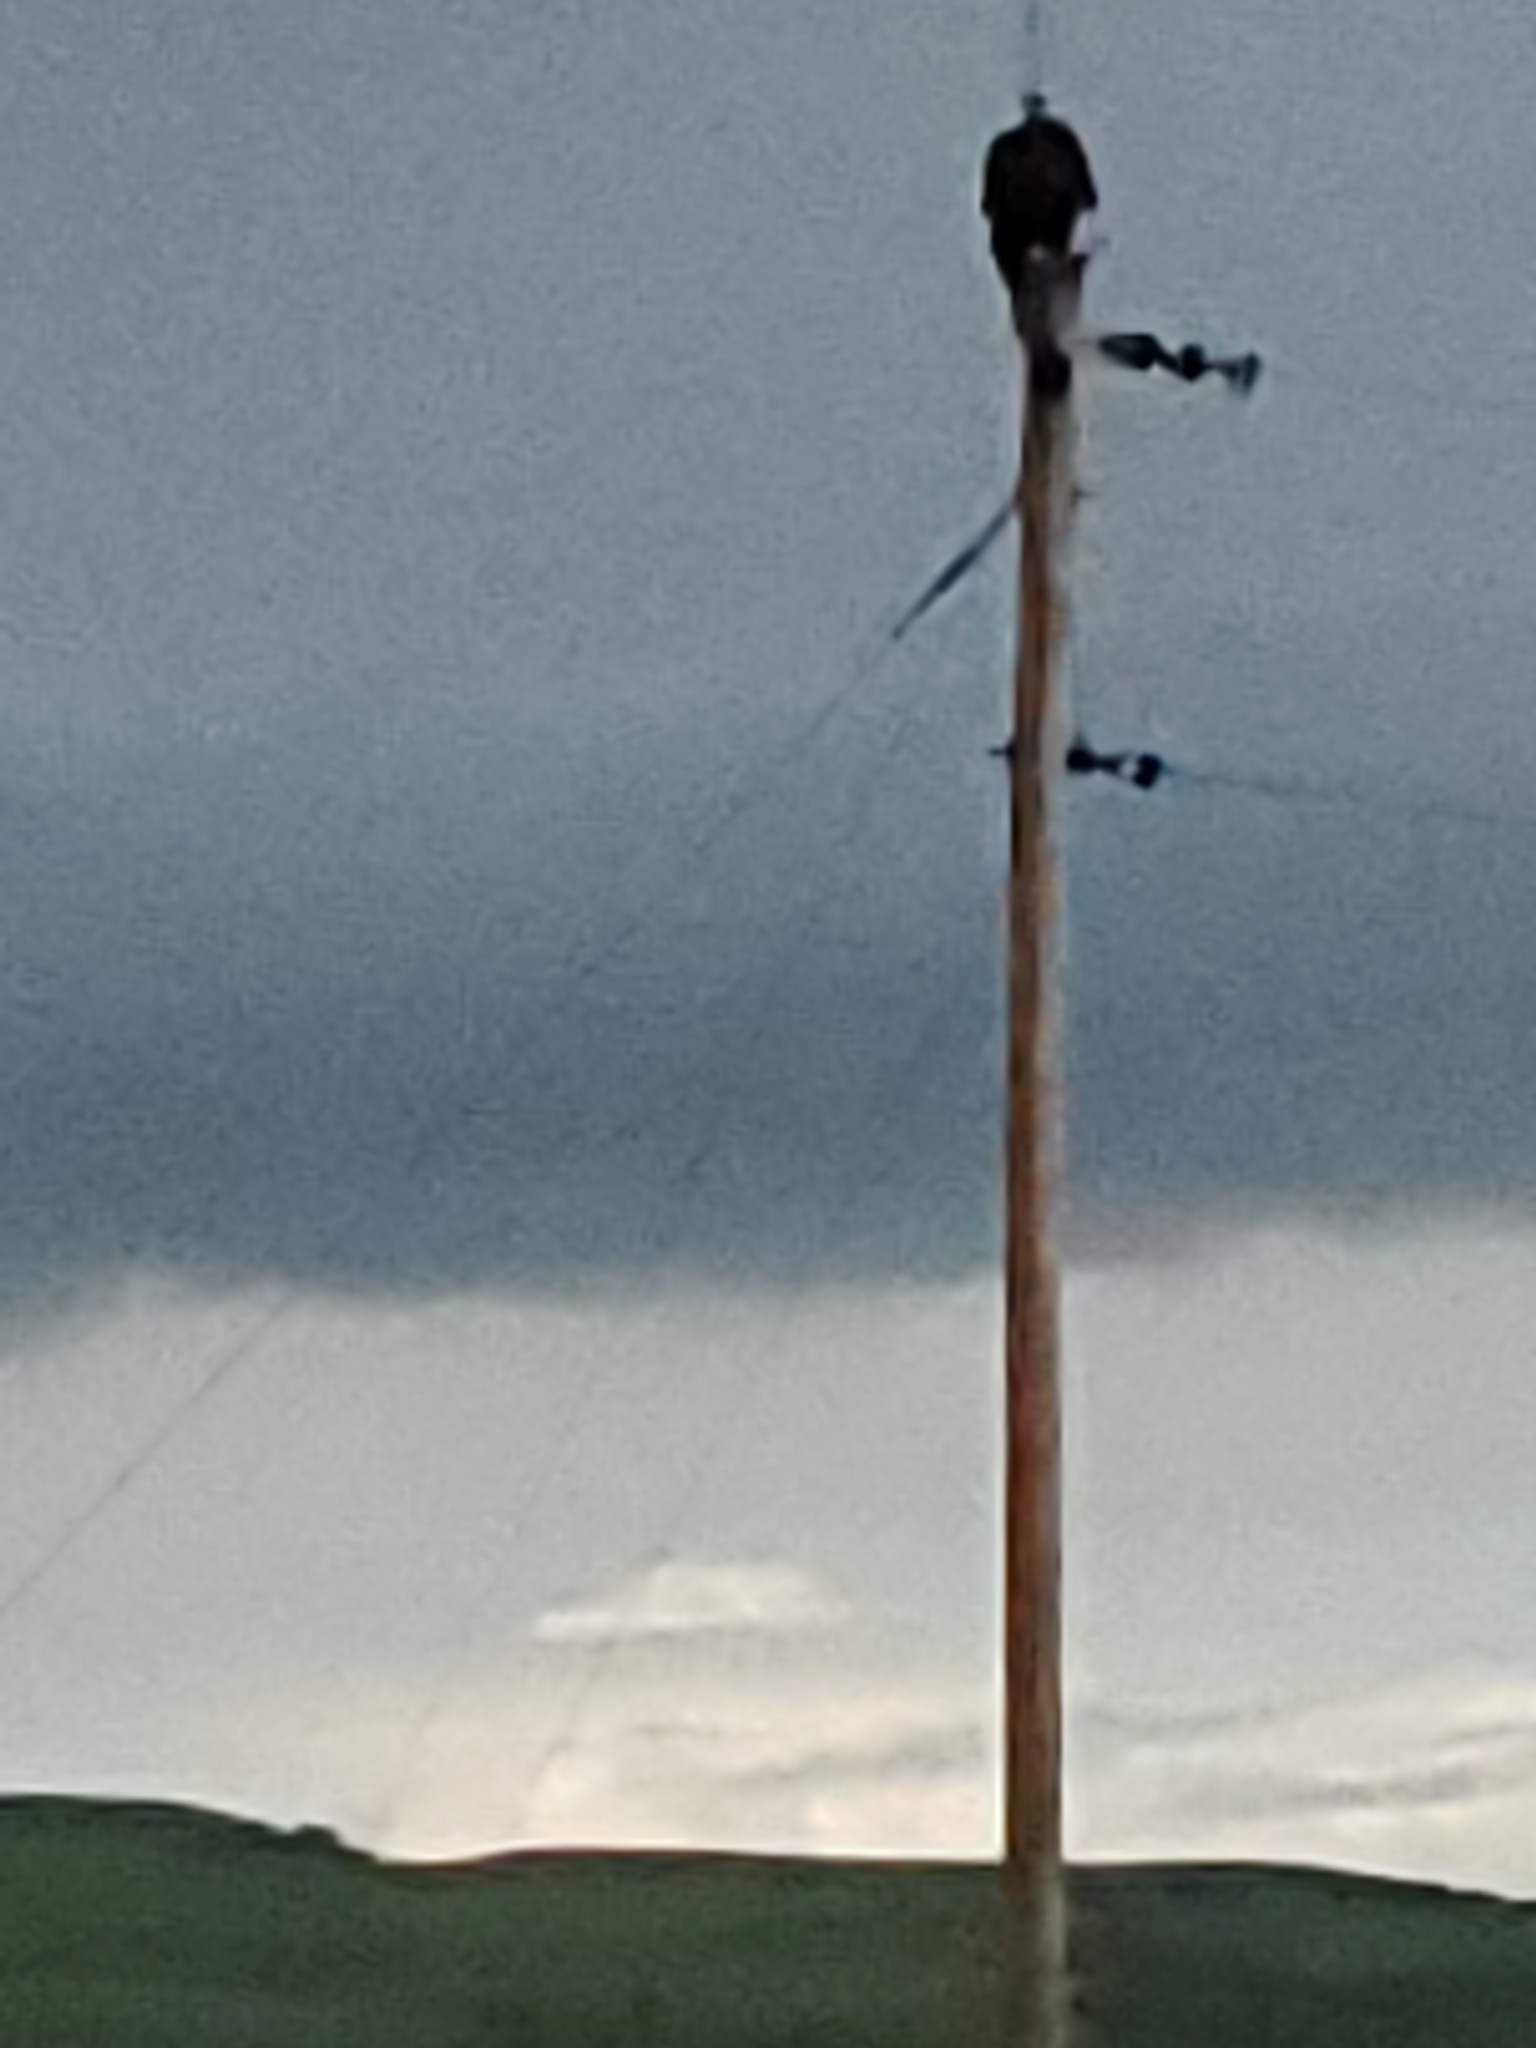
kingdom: Animalia
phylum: Chordata
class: Aves
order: Accipitriformes
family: Accipitridae
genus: Haliaeetus
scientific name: Haliaeetus leucocephalus
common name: Bald eagle
